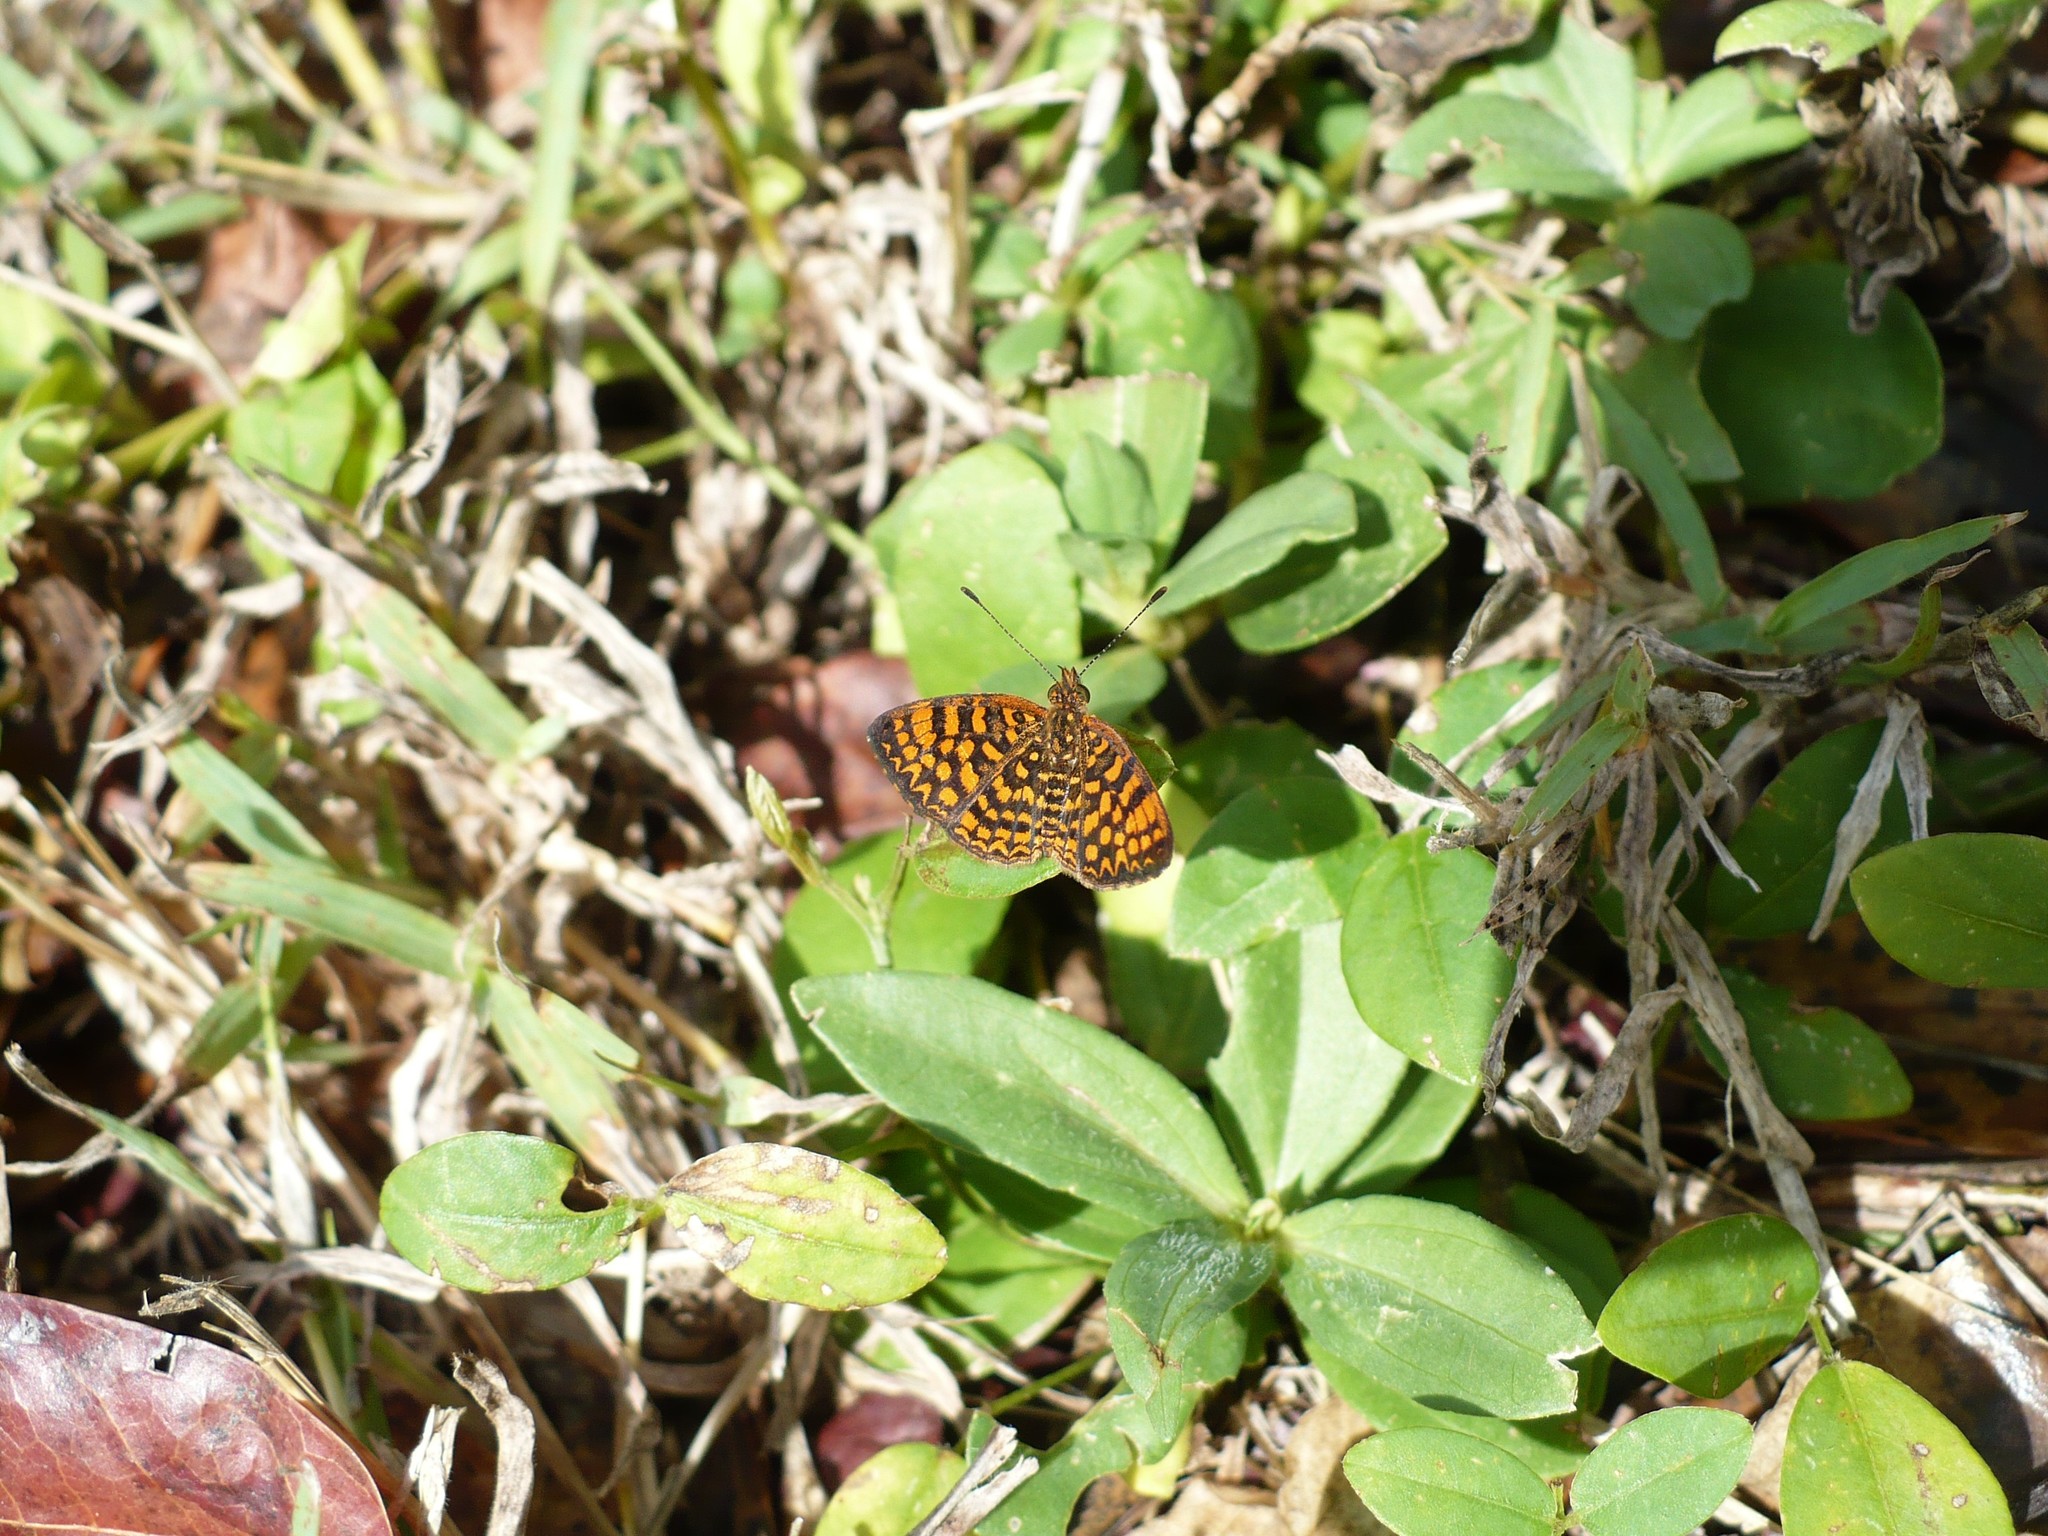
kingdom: Animalia
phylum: Arthropoda
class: Insecta
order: Lepidoptera
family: Nymphalidae
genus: Antillea
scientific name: Antillea pelops
